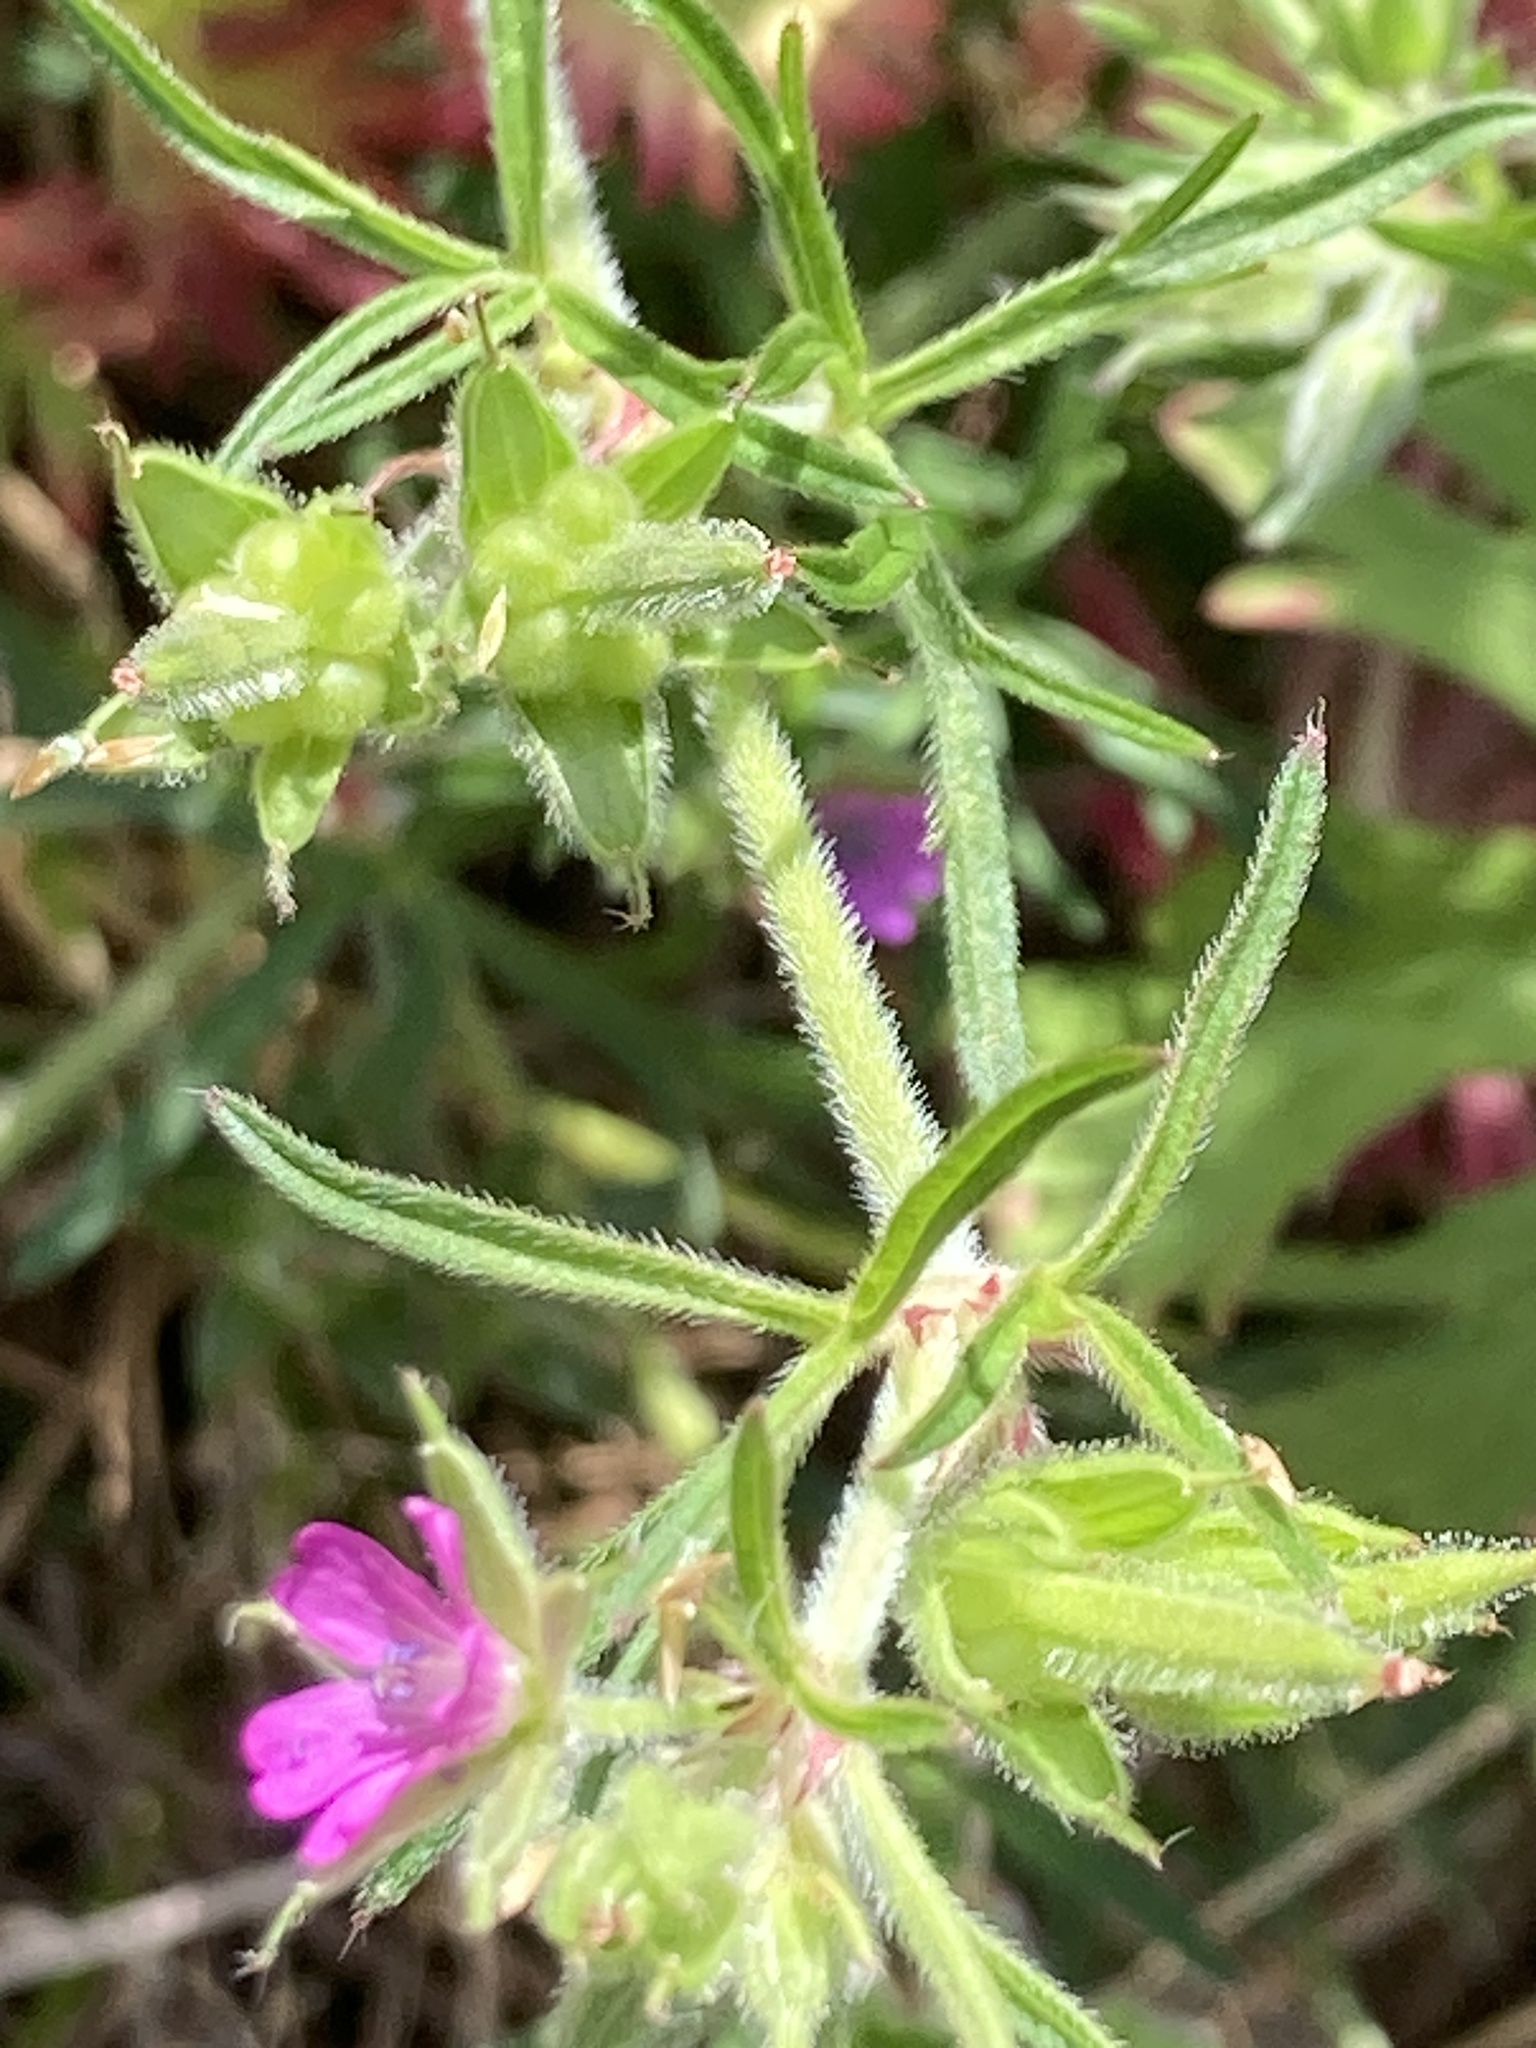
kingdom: Plantae
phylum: Tracheophyta
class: Magnoliopsida
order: Geraniales
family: Geraniaceae
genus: Geranium
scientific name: Geranium dissectum
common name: Cut-leaved crane's-bill
